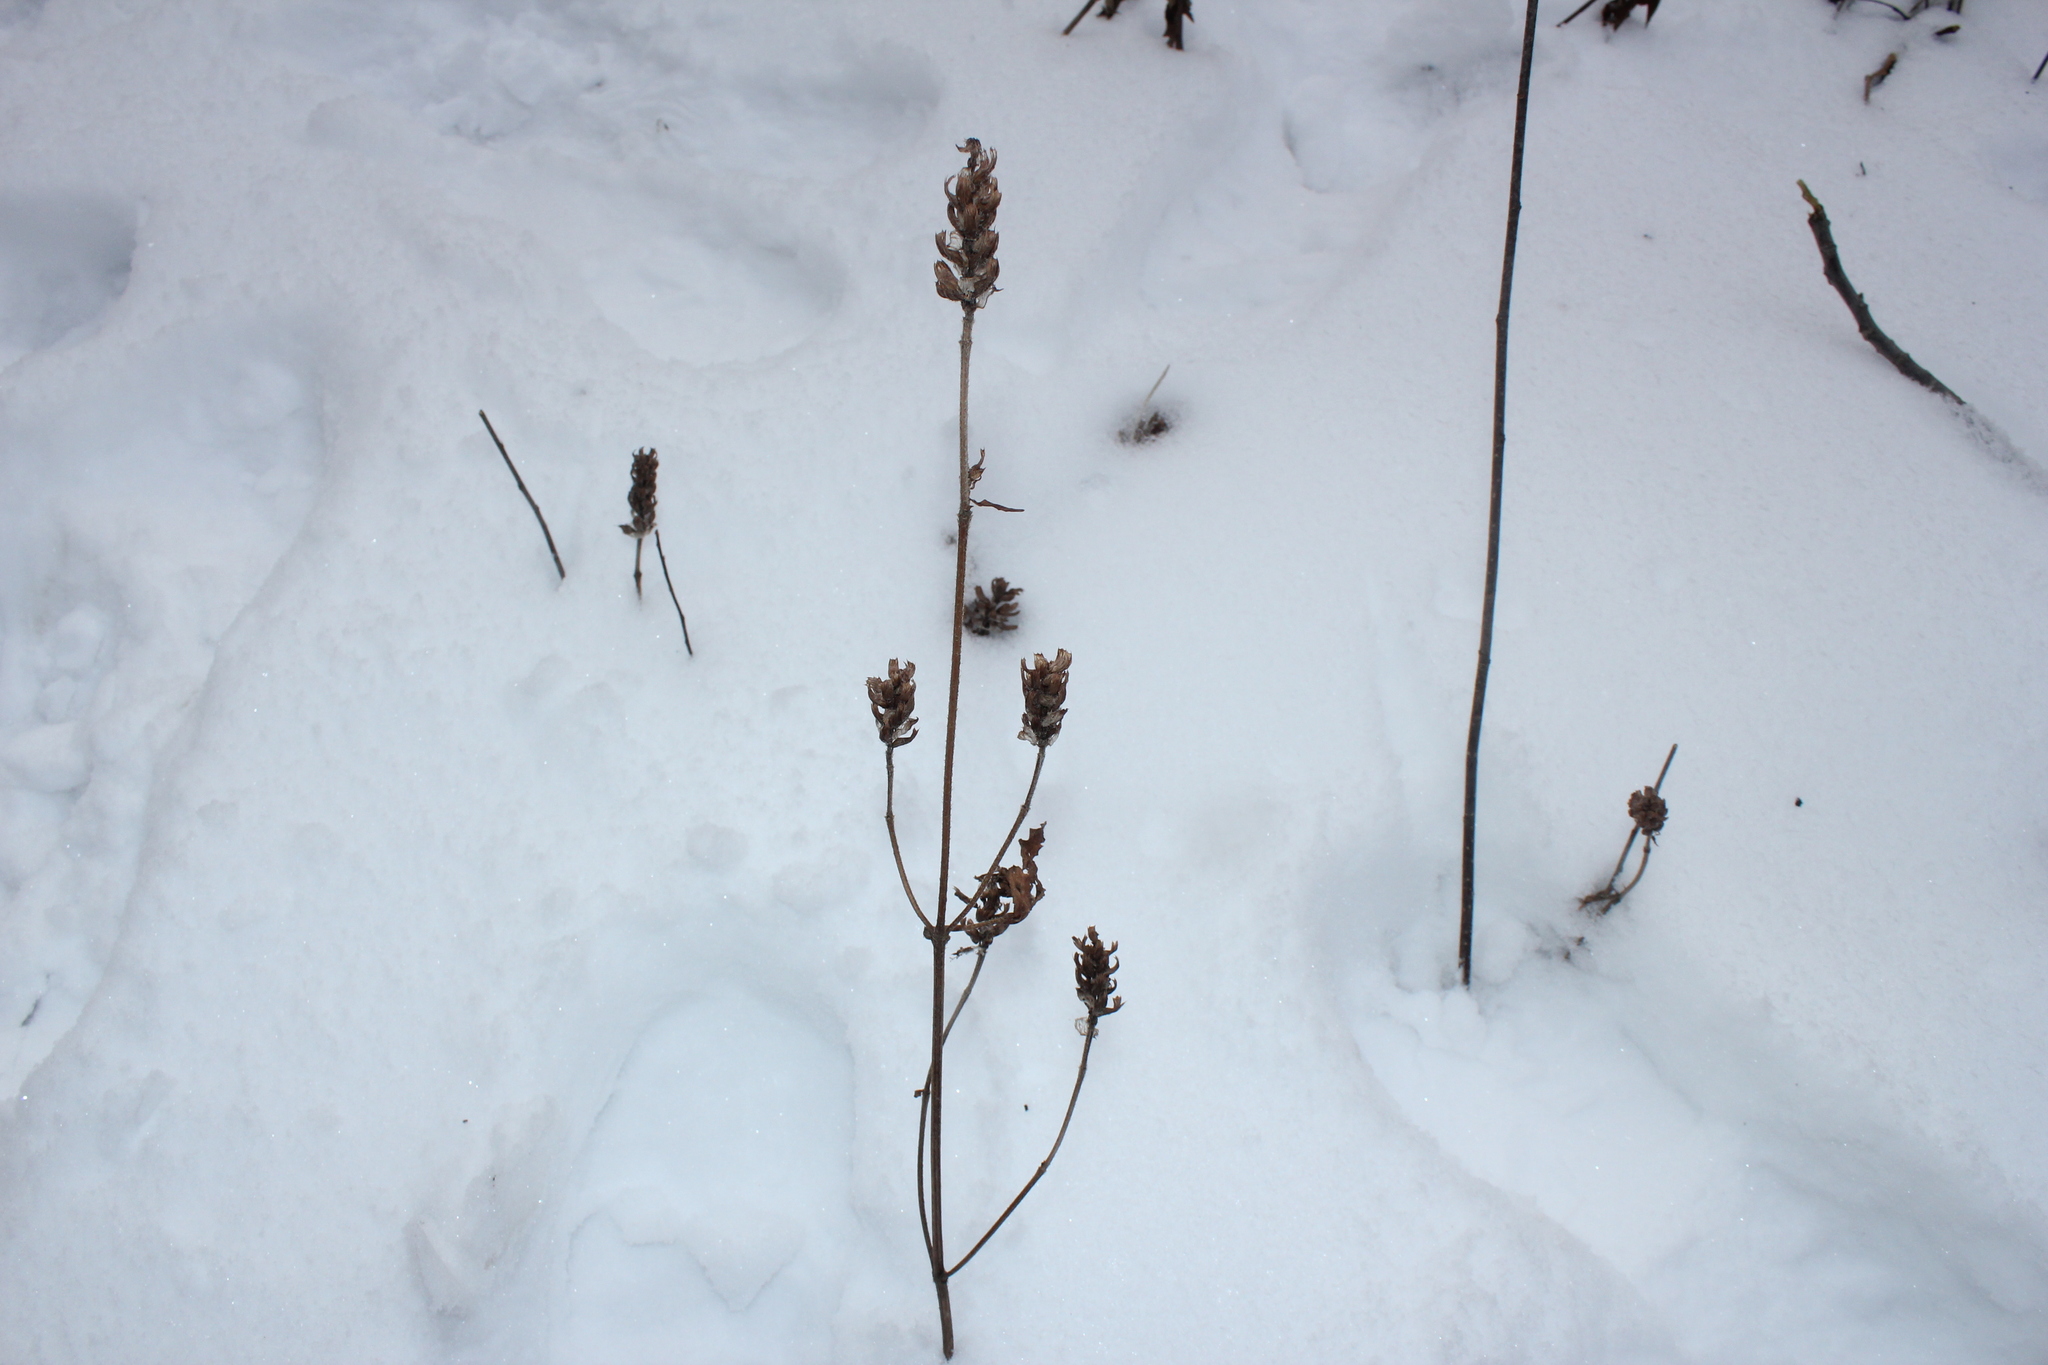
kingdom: Plantae
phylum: Tracheophyta
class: Magnoliopsida
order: Lamiales
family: Lamiaceae
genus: Prunella
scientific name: Prunella vulgaris
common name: Heal-all
